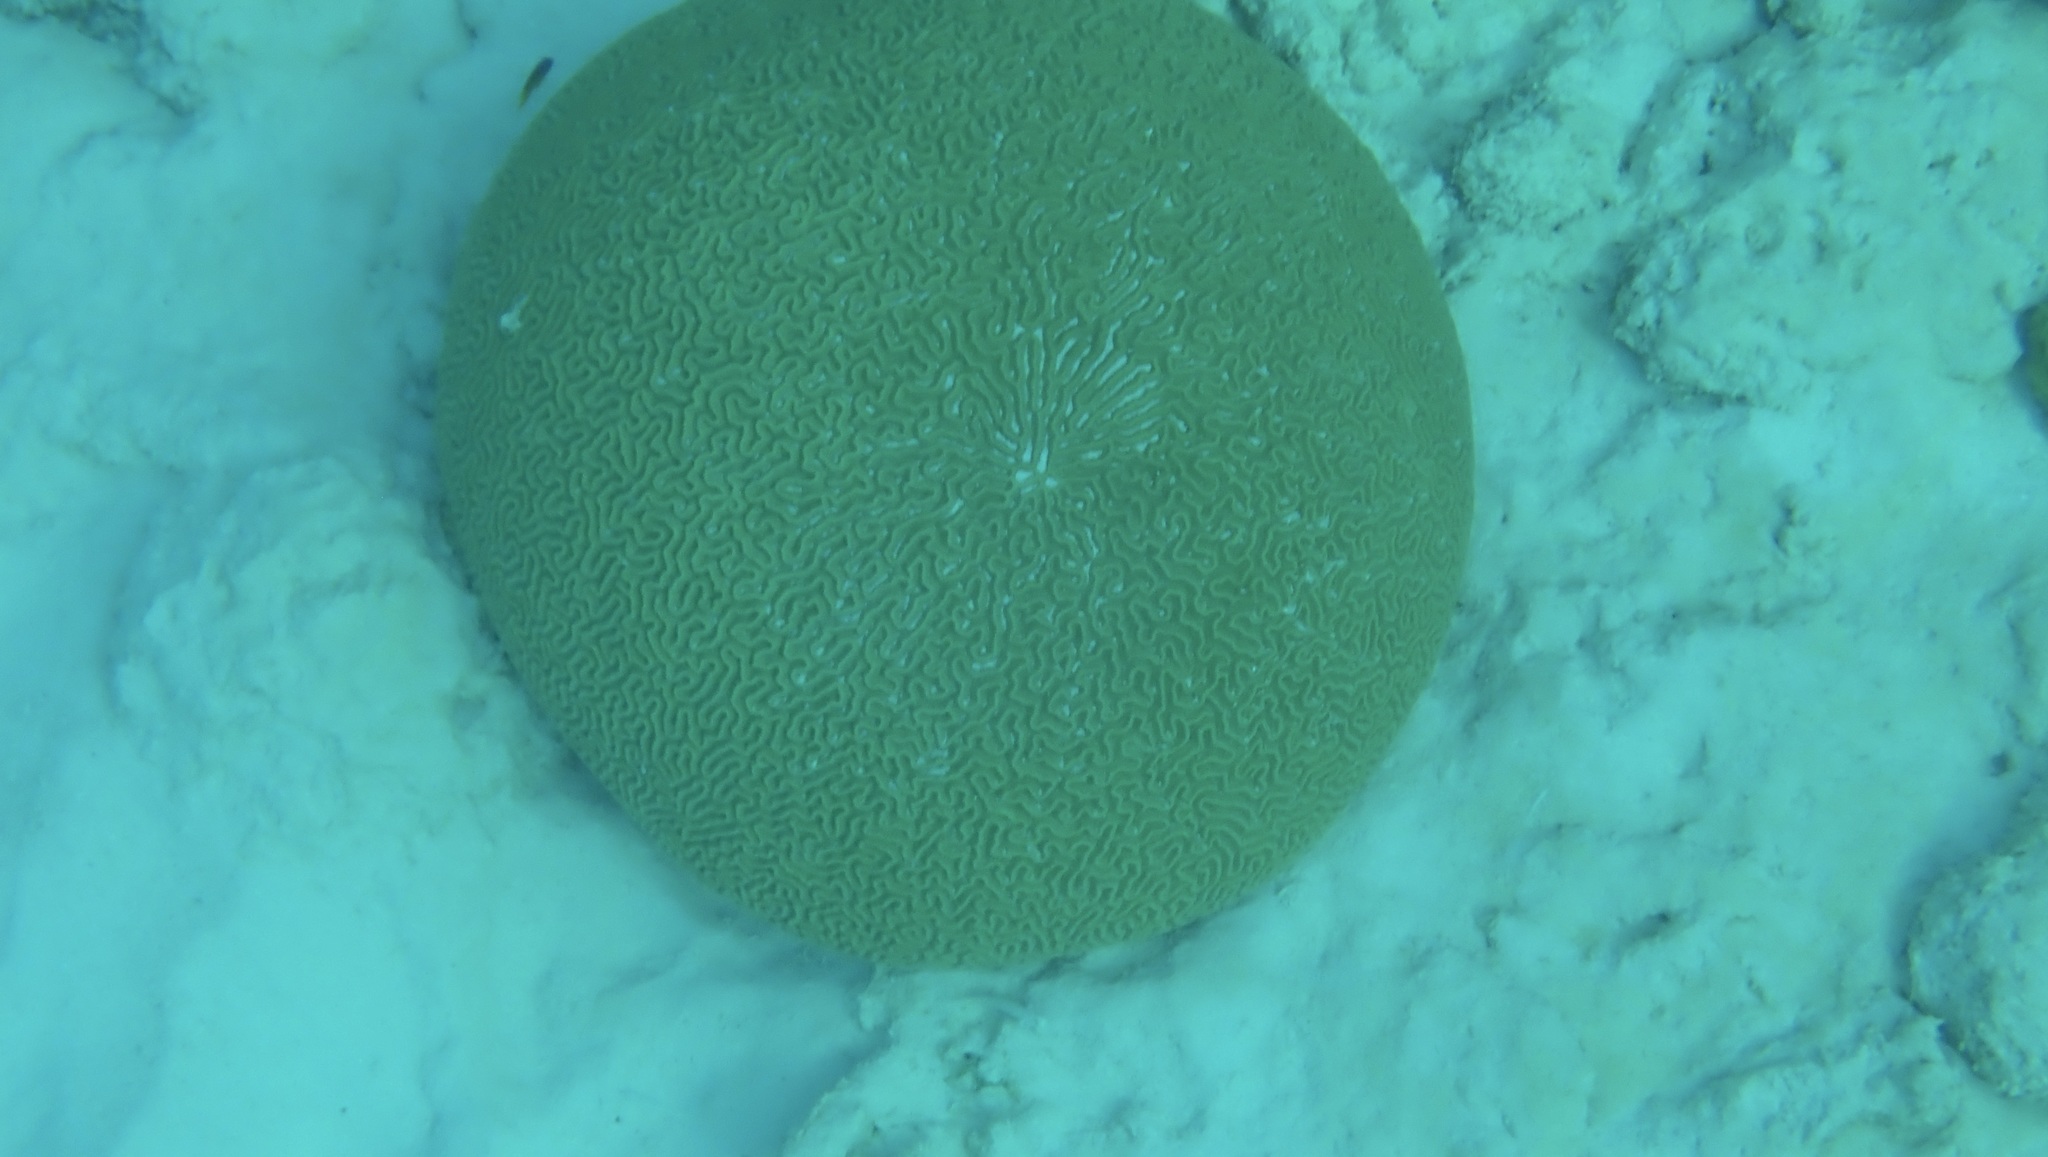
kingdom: Animalia
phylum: Cnidaria
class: Anthozoa
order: Scleractinia
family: Faviidae
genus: Pseudodiploria
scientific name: Pseudodiploria strigosa
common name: Symmetrical brain coral
